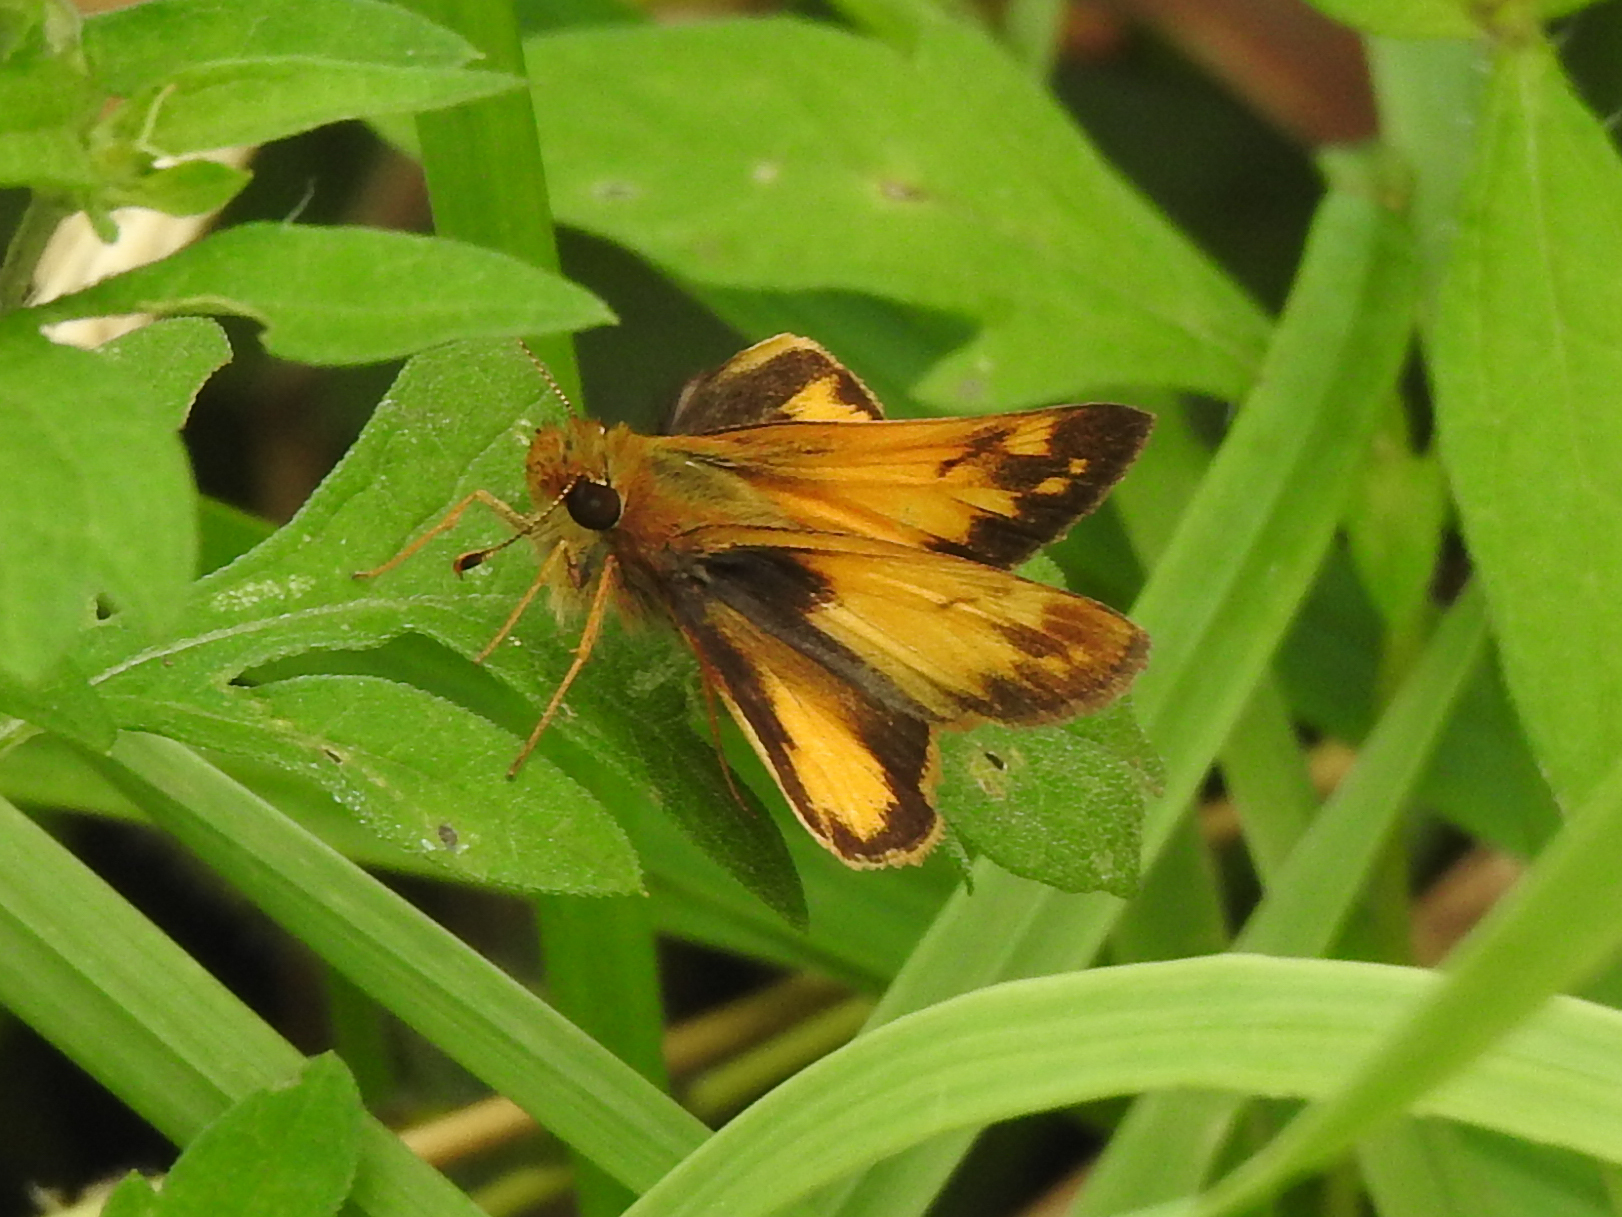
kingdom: Animalia
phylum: Arthropoda
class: Insecta
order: Lepidoptera
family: Hesperiidae
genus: Lon
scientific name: Lon zabulon
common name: Zabulon skipper
